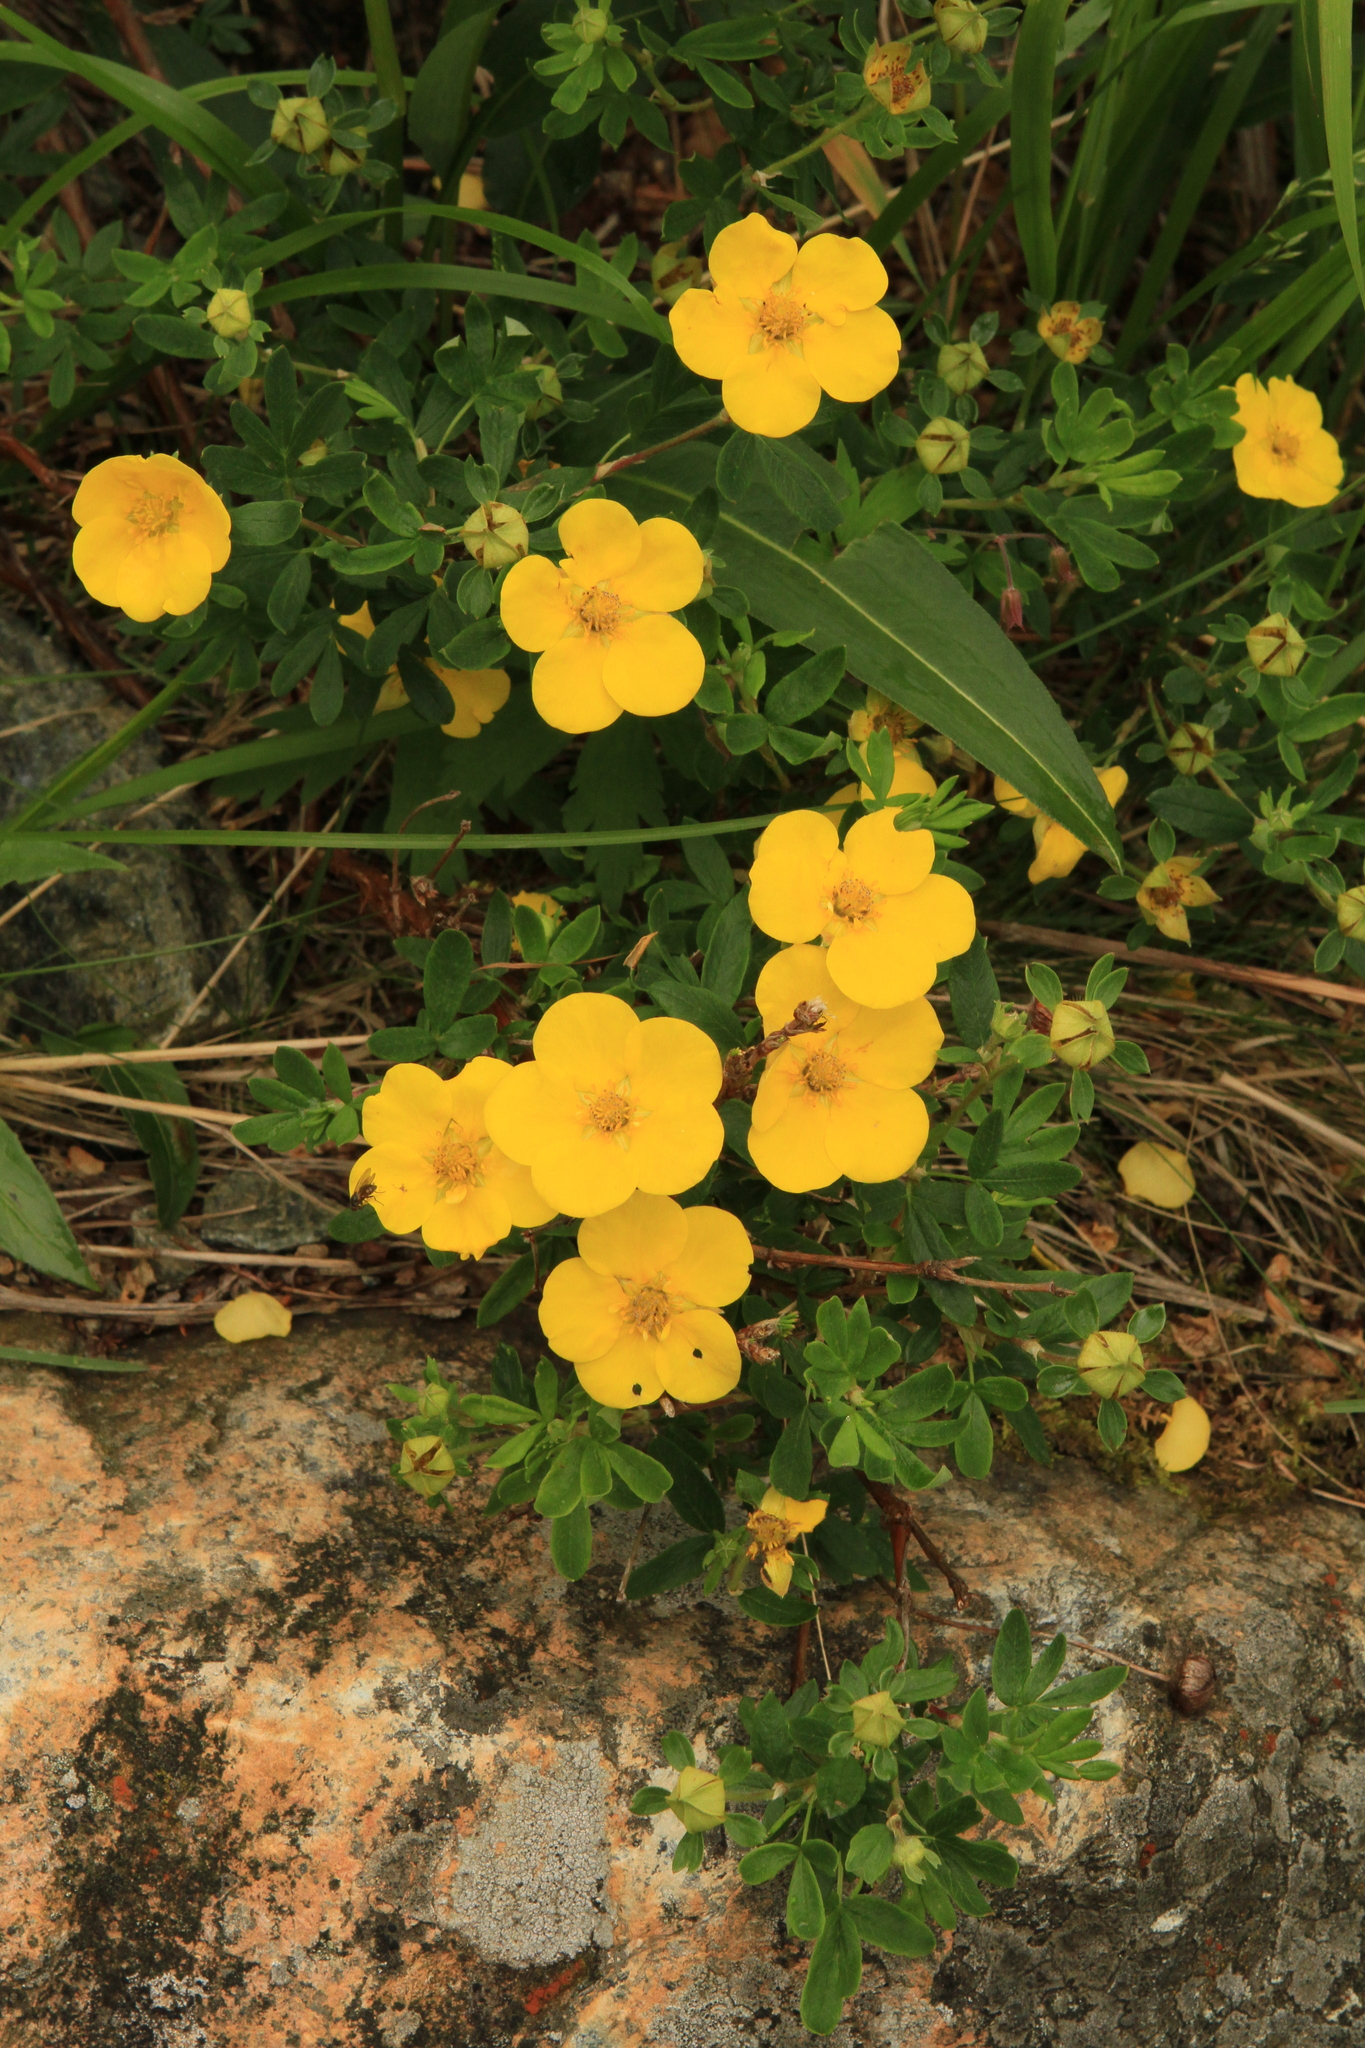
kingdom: Plantae
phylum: Tracheophyta
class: Magnoliopsida
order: Rosales
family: Rosaceae
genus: Dasiphora
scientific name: Dasiphora fruticosa
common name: Shrubby cinquefoil
